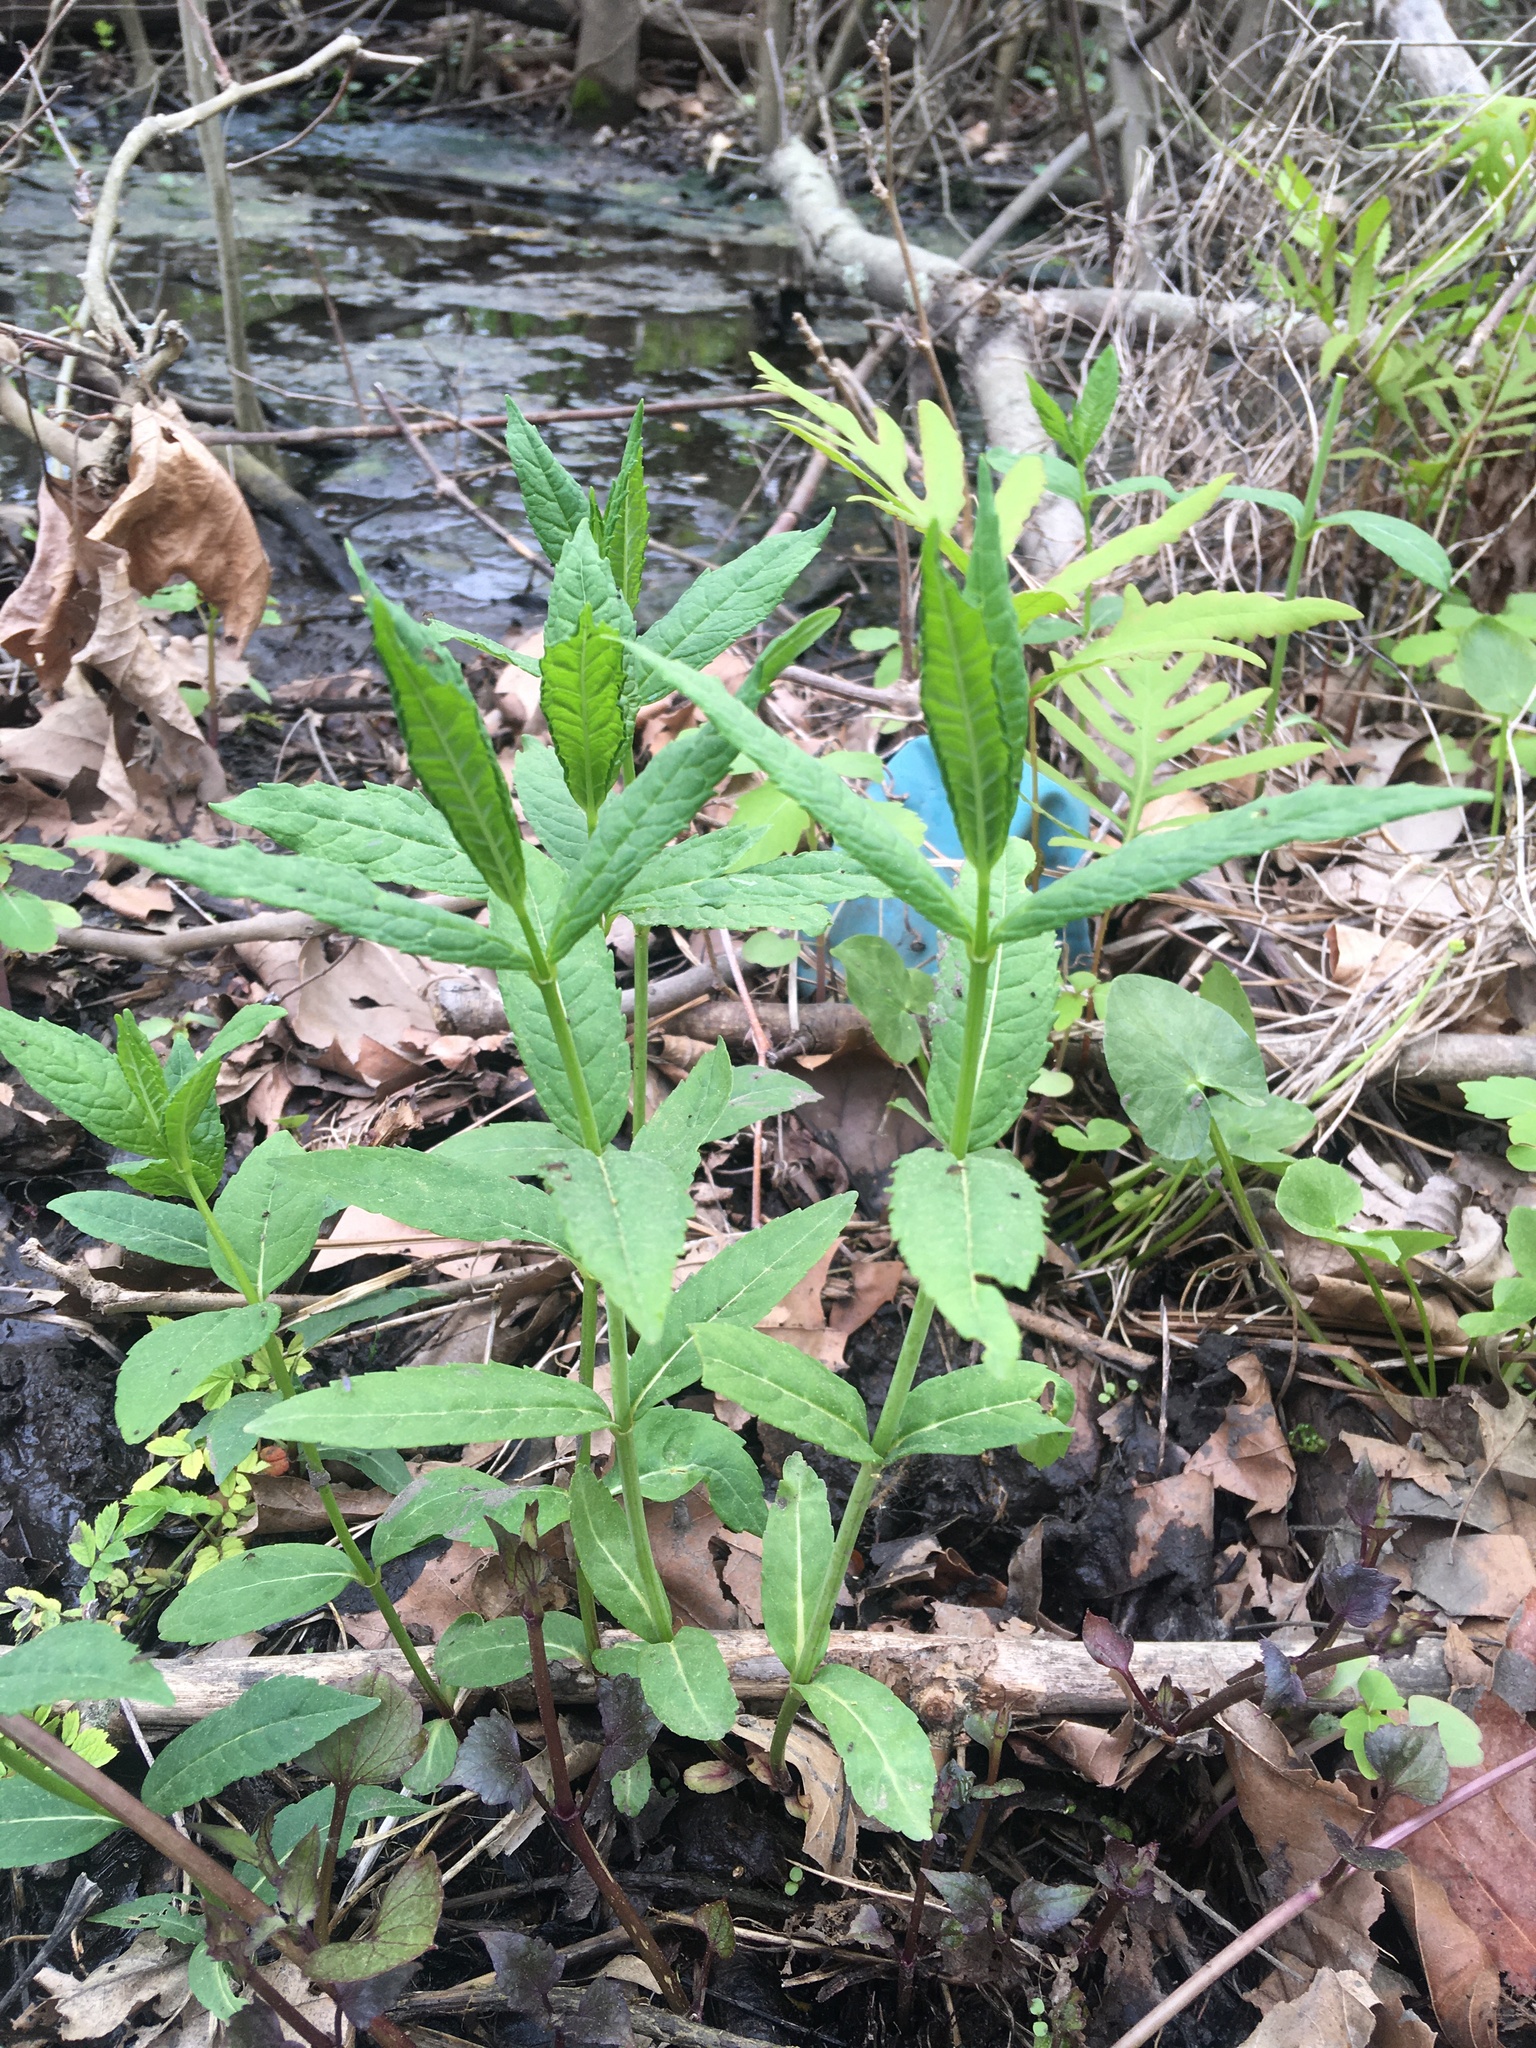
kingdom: Plantae
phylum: Tracheophyta
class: Magnoliopsida
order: Lamiales
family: Plantaginaceae
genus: Chelone
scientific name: Chelone glabra
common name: Snakehead
